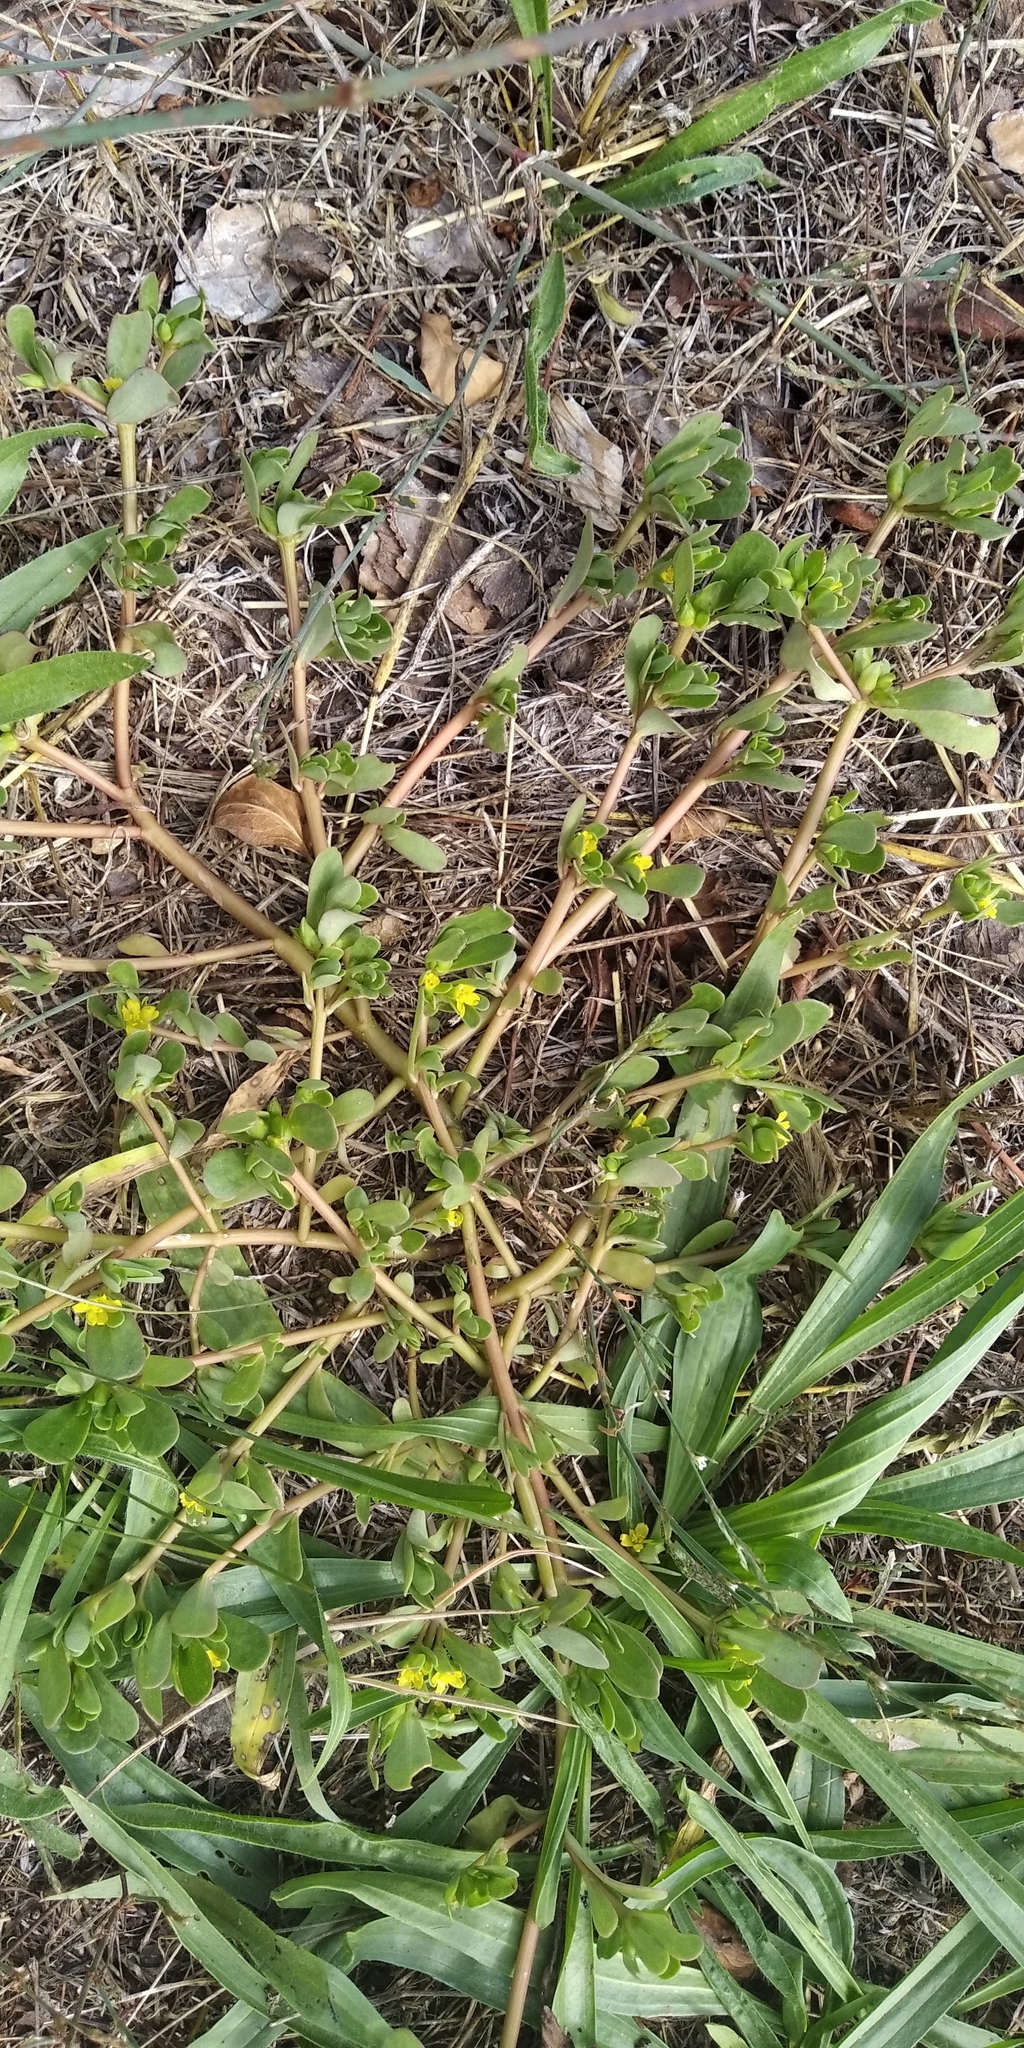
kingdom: Plantae
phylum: Tracheophyta
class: Magnoliopsida
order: Caryophyllales
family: Portulacaceae
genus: Portulaca
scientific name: Portulaca oleracea
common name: Common purslane
